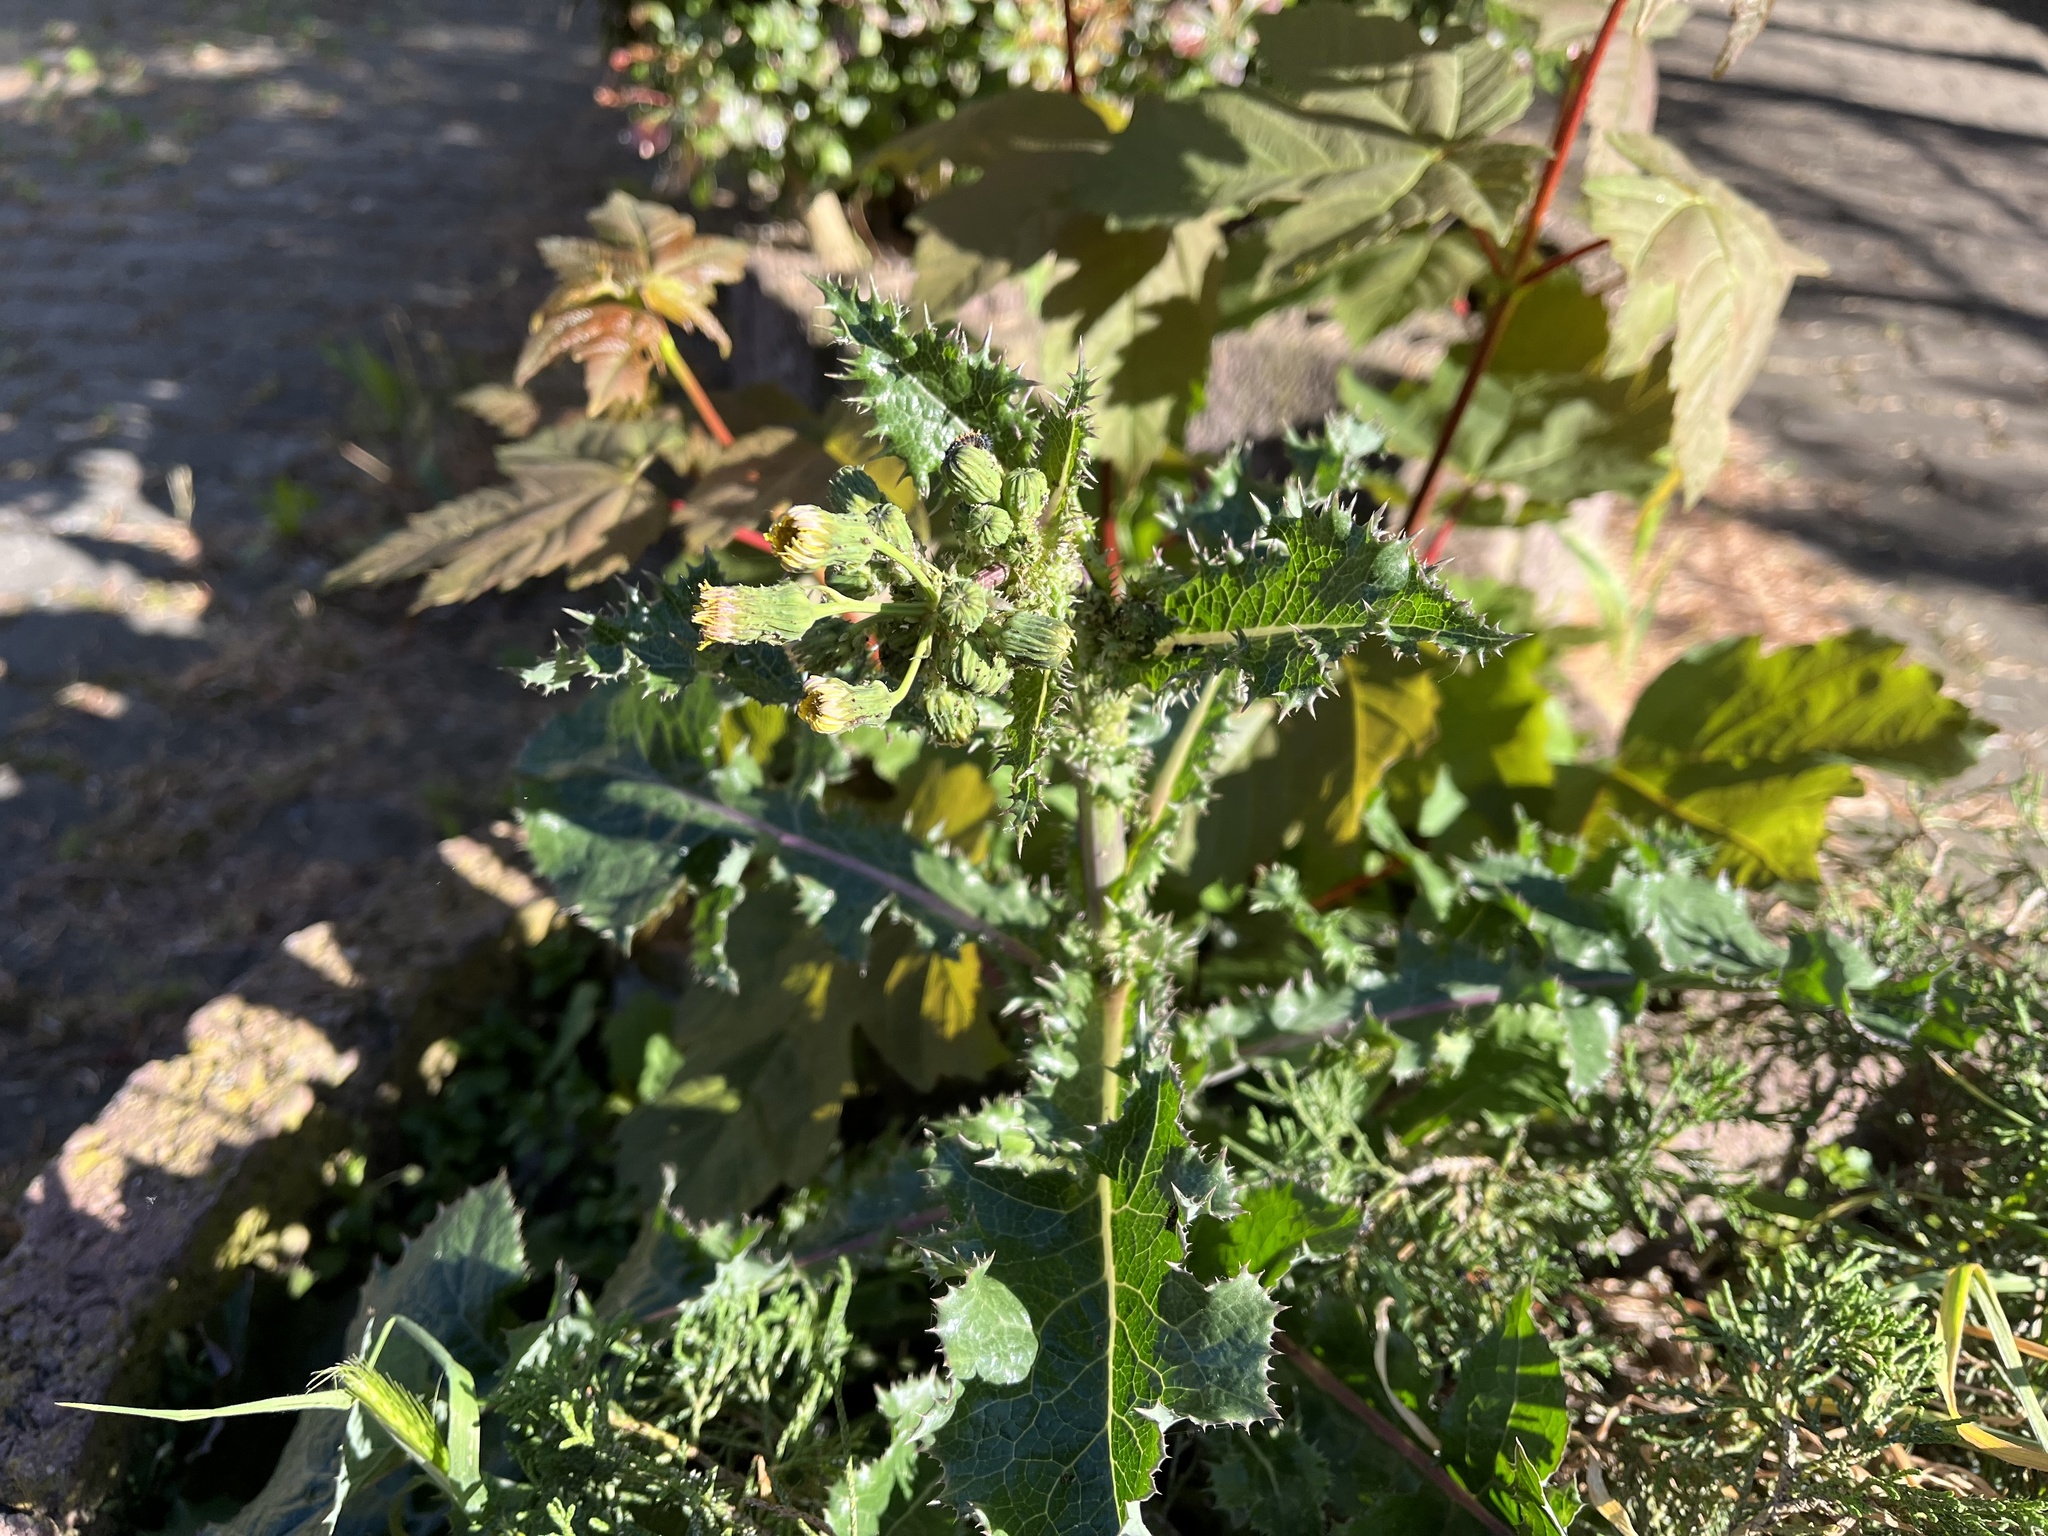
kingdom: Plantae
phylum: Tracheophyta
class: Magnoliopsida
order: Asterales
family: Asteraceae
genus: Sonchus
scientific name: Sonchus asper
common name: Prickly sow-thistle
